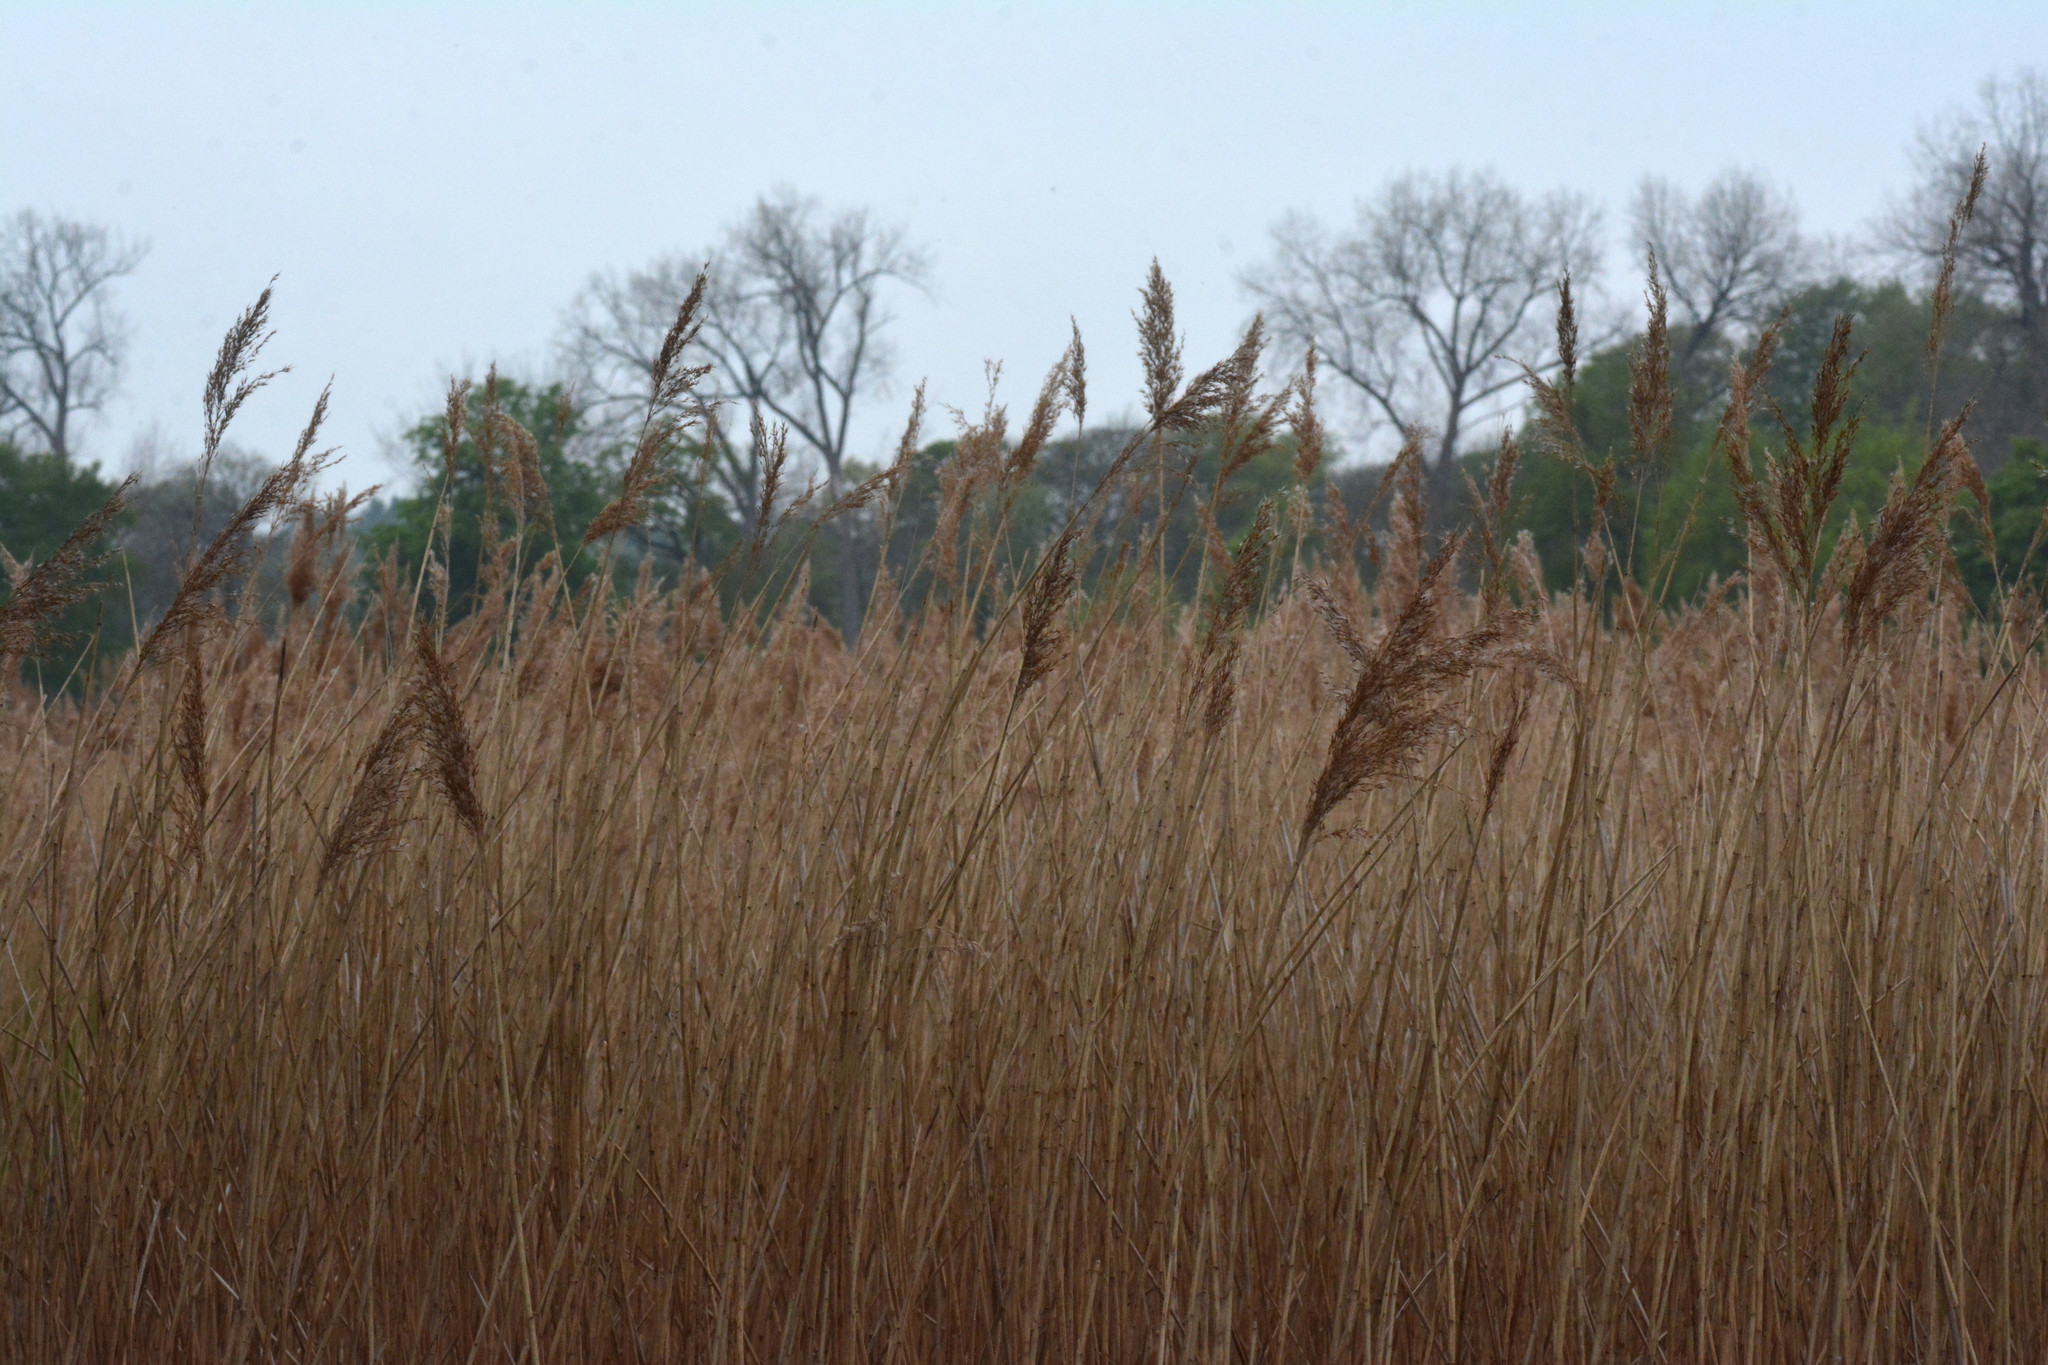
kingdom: Plantae
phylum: Tracheophyta
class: Liliopsida
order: Poales
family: Poaceae
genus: Phragmites
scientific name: Phragmites australis
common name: Common reed
